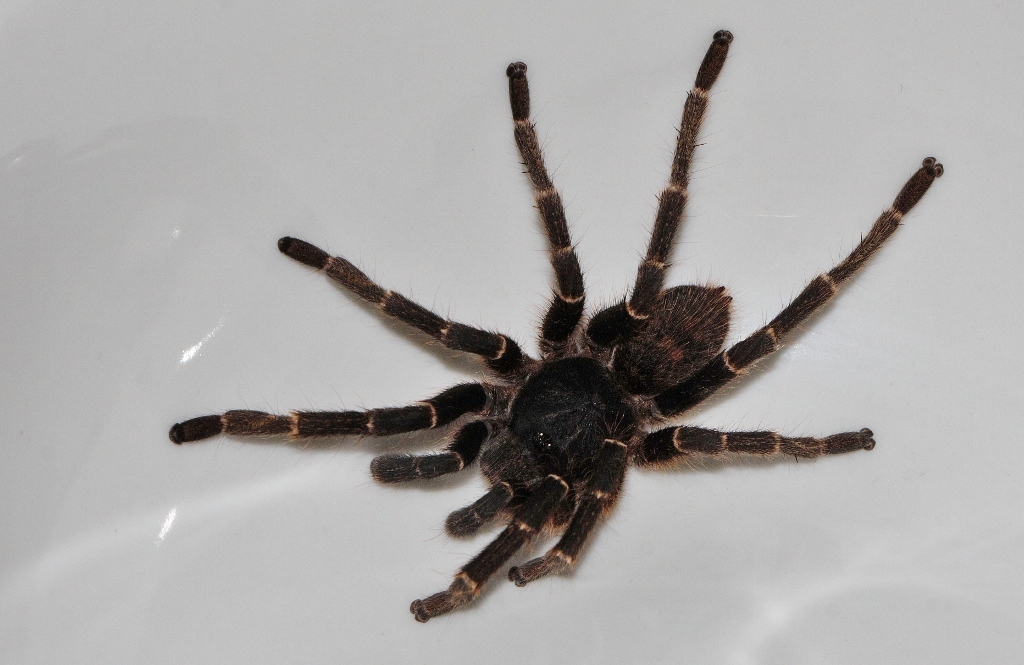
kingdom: Animalia
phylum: Arthropoda
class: Arachnida
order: Araneae
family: Theraphosidae
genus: Idiothele
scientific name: Idiothele nigrofulva
